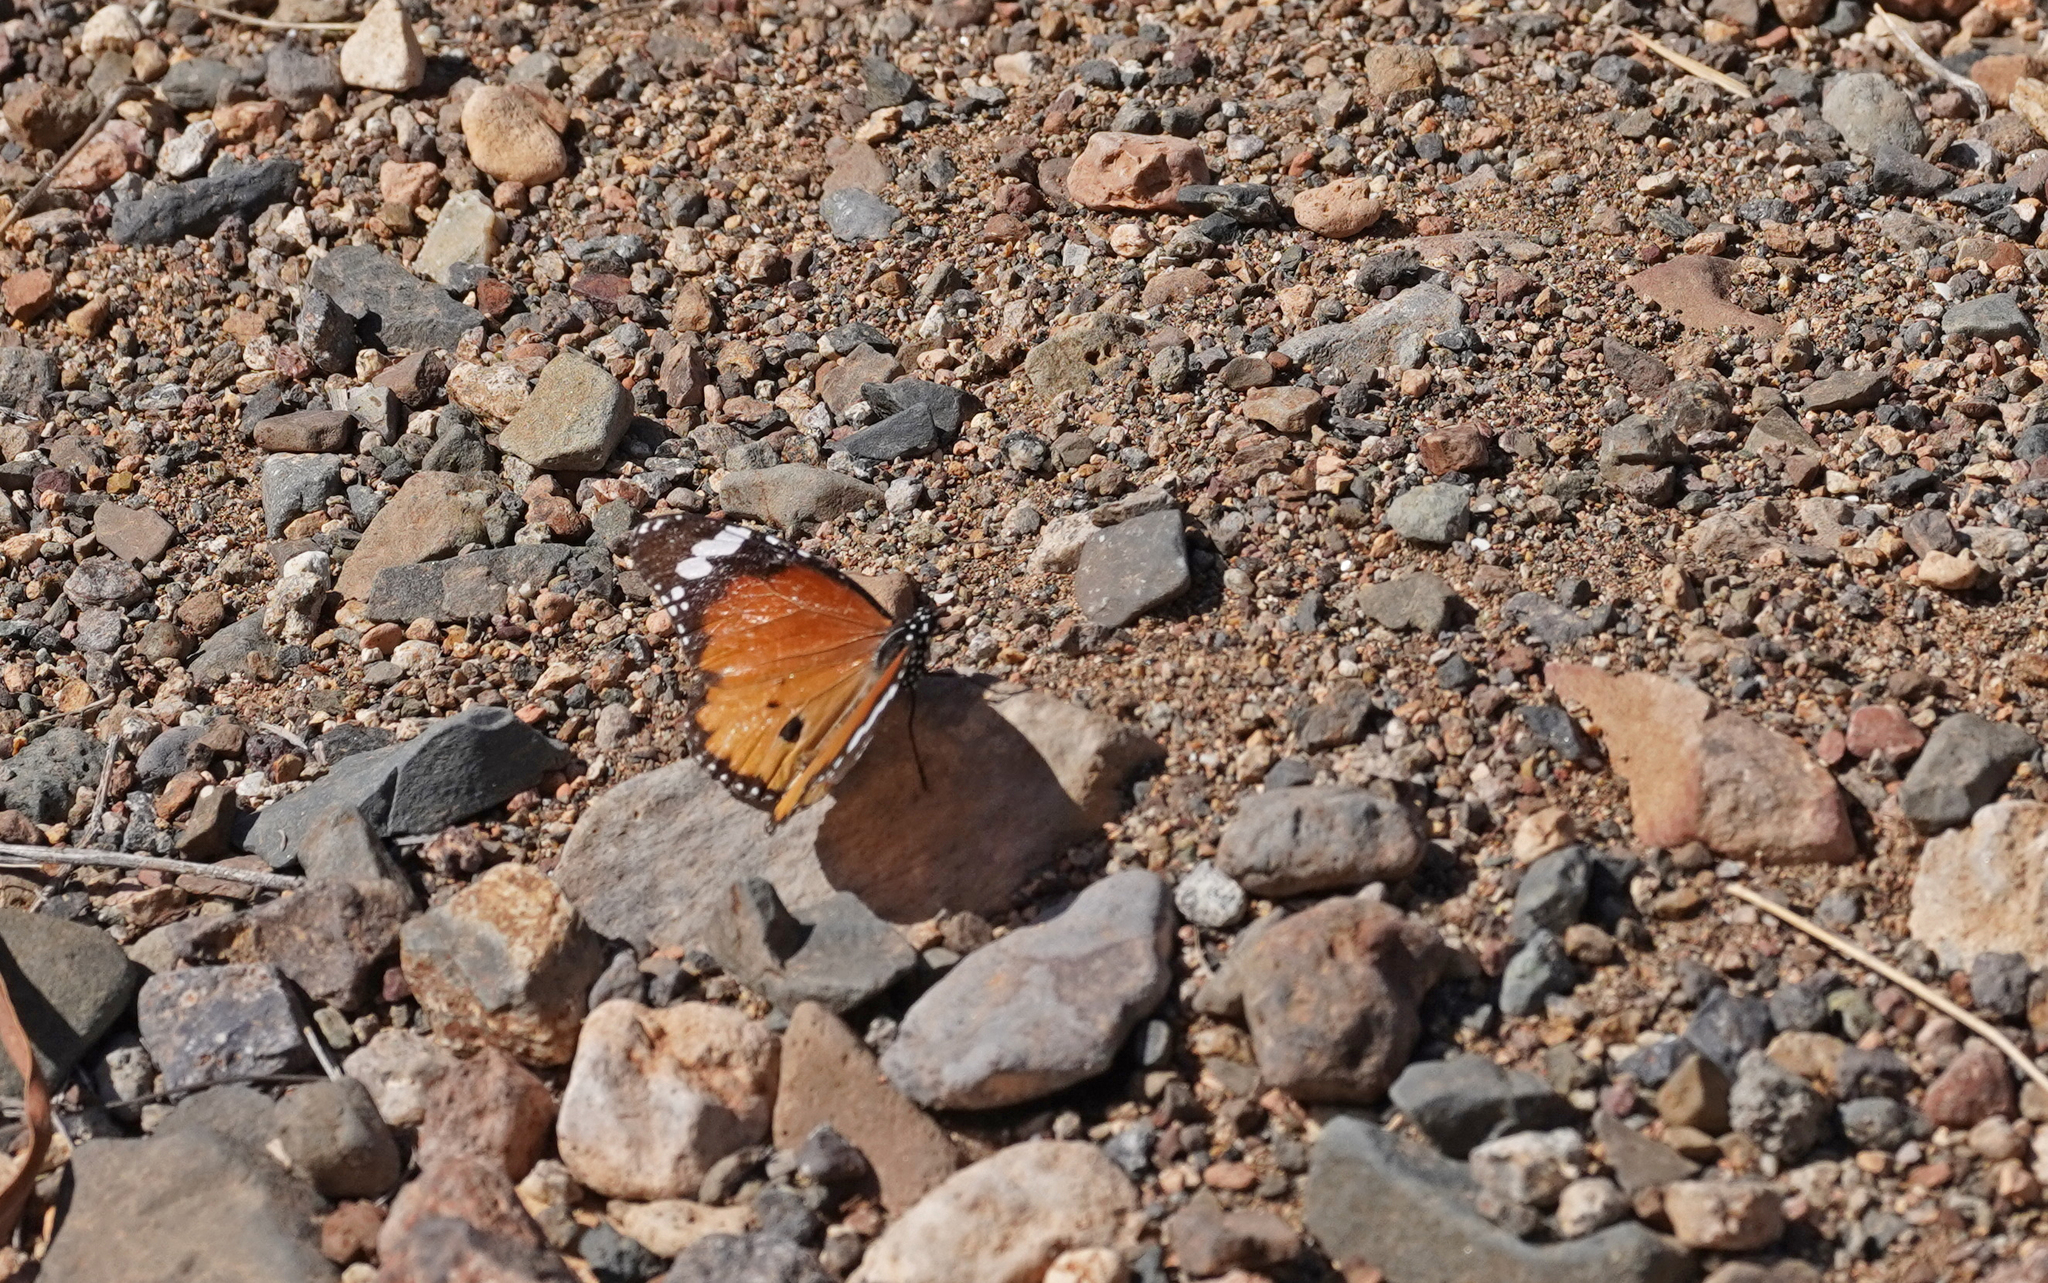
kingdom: Animalia
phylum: Arthropoda
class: Insecta
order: Lepidoptera
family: Nymphalidae
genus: Danaus
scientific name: Danaus chrysippus
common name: Plain tiger
